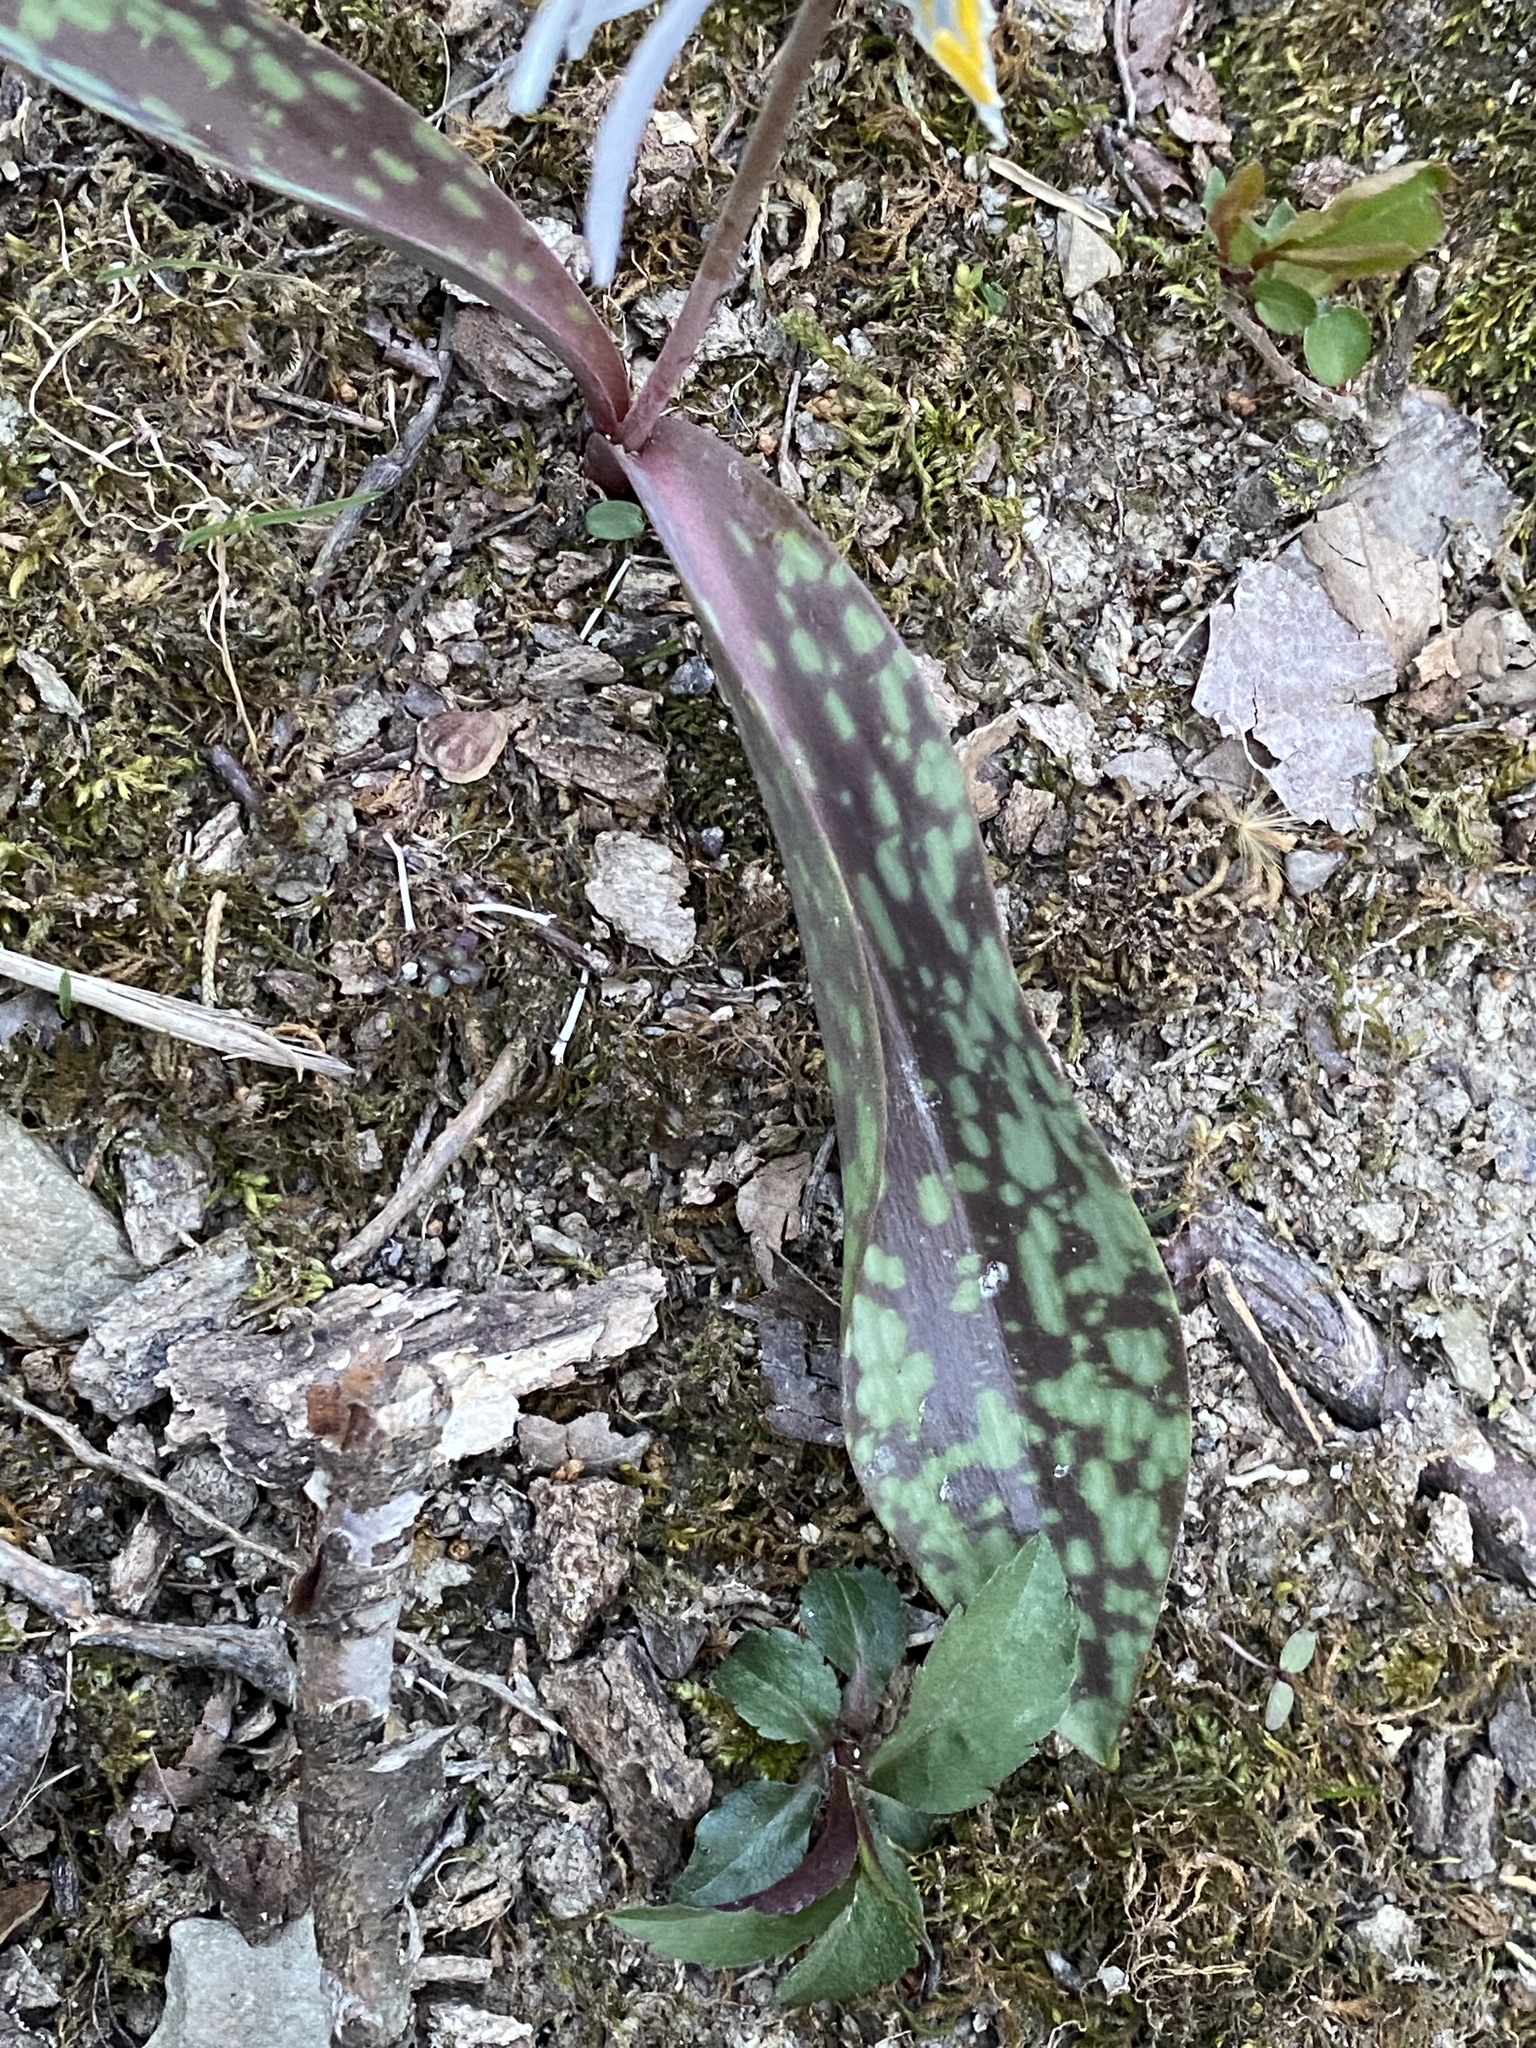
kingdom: Plantae
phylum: Tracheophyta
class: Liliopsida
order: Liliales
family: Liliaceae
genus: Erythronium
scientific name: Erythronium albidum
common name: White trout-lily
